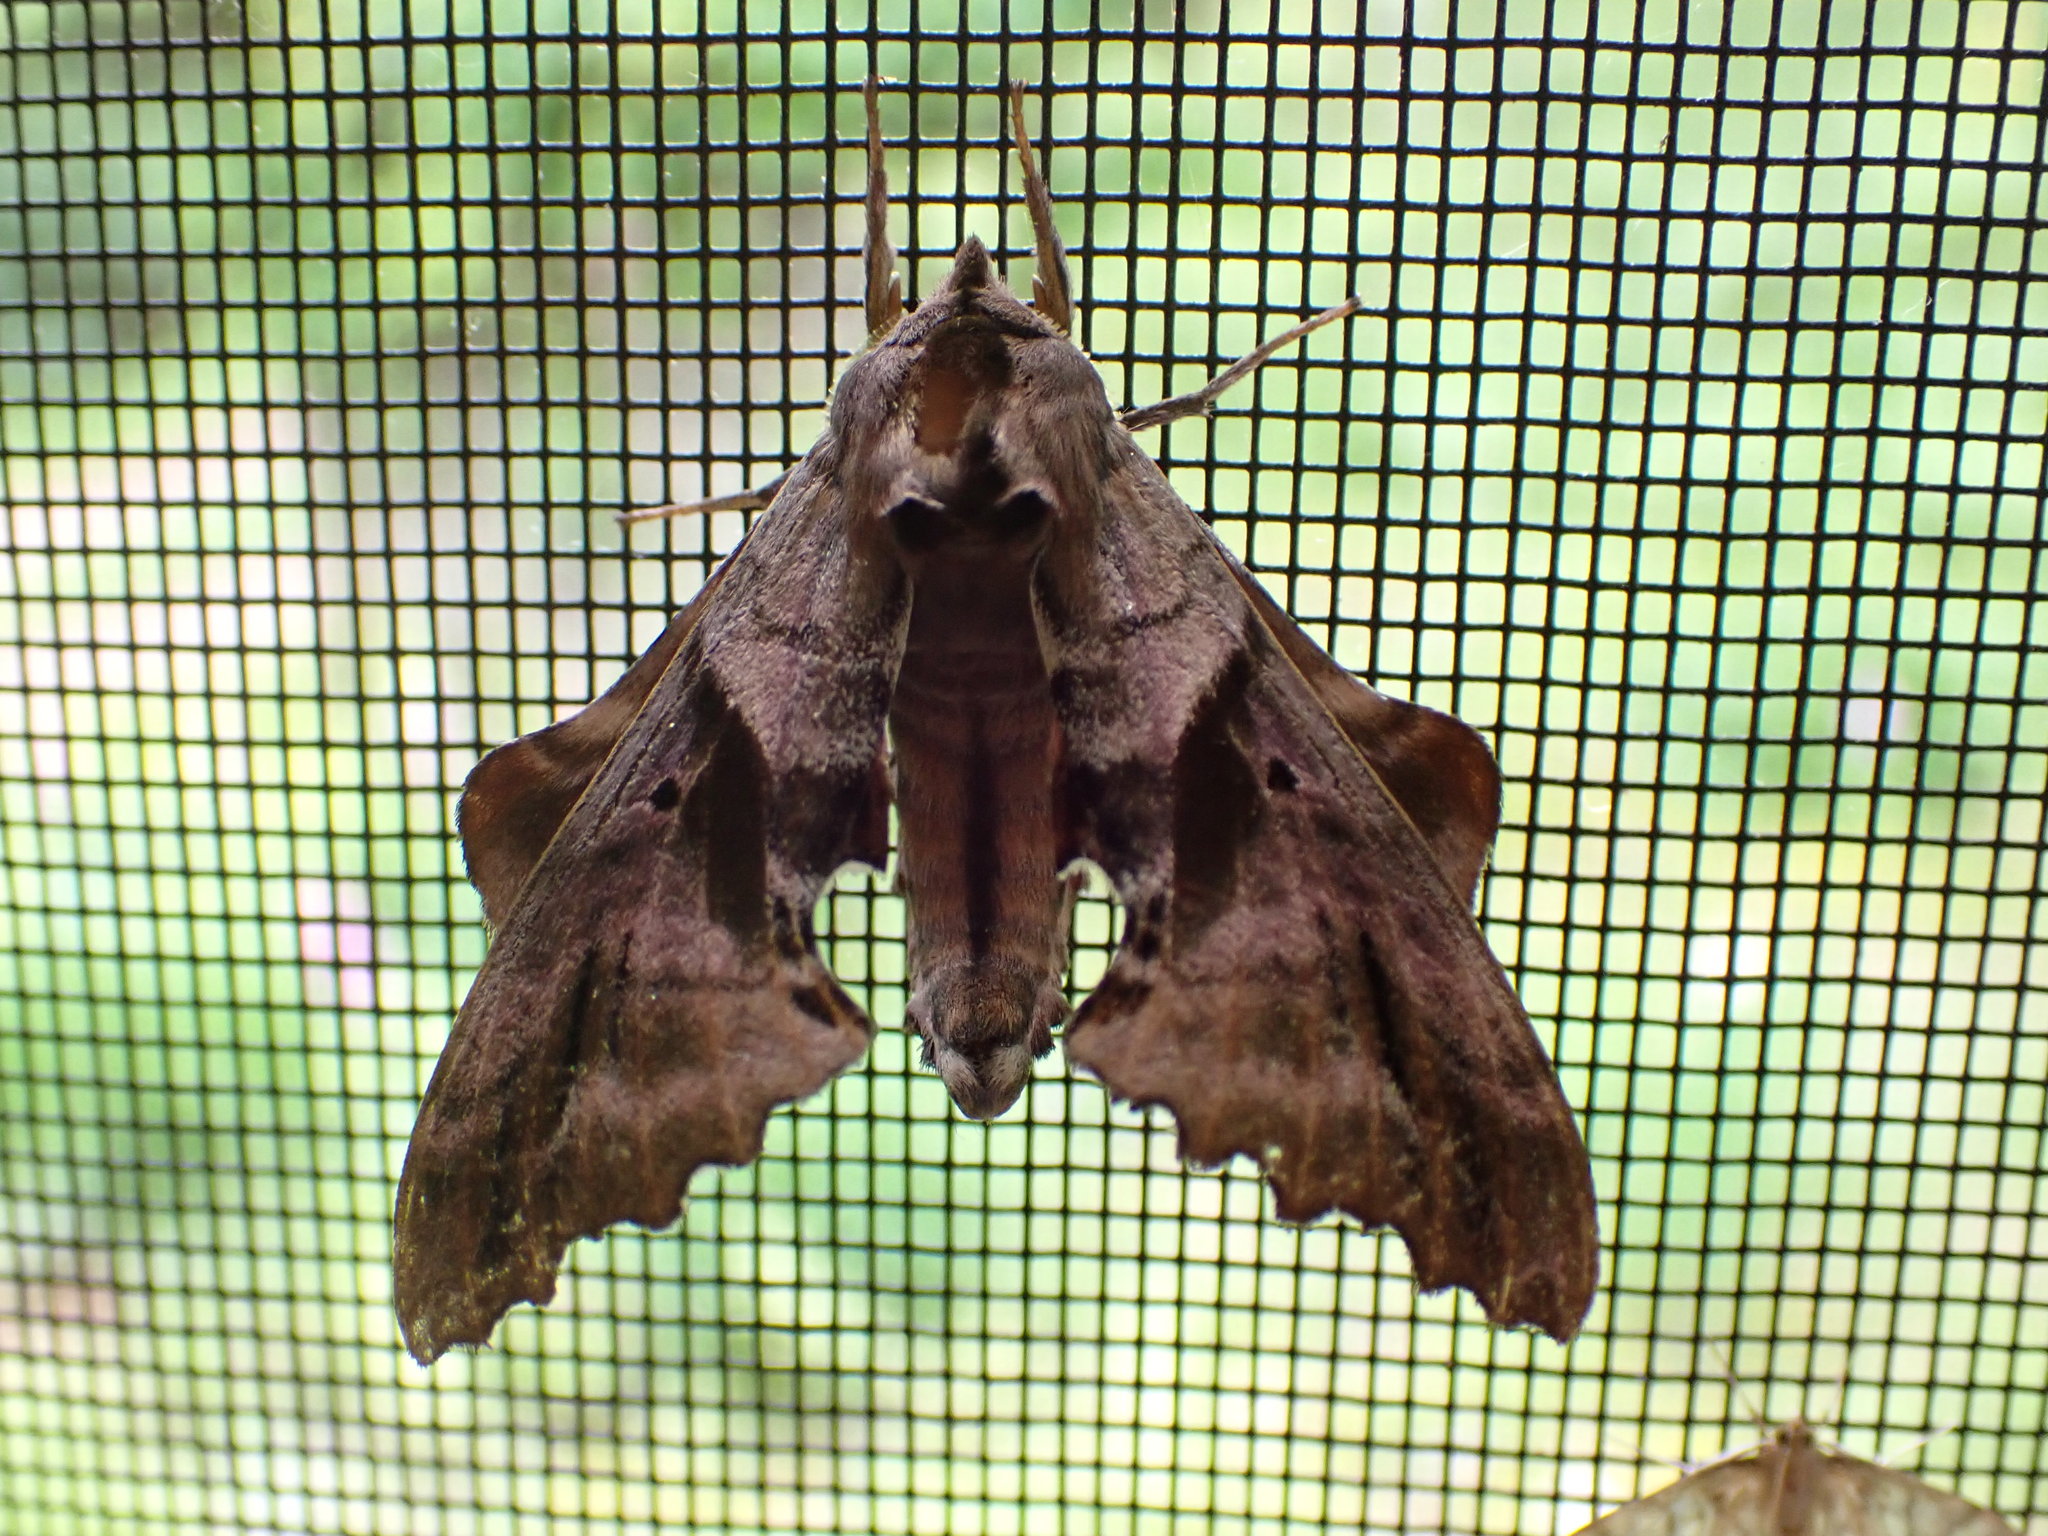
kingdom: Animalia
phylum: Arthropoda
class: Insecta
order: Lepidoptera
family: Sphingidae
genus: Paonias
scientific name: Paonias excaecata
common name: Blind-eyed sphinx
